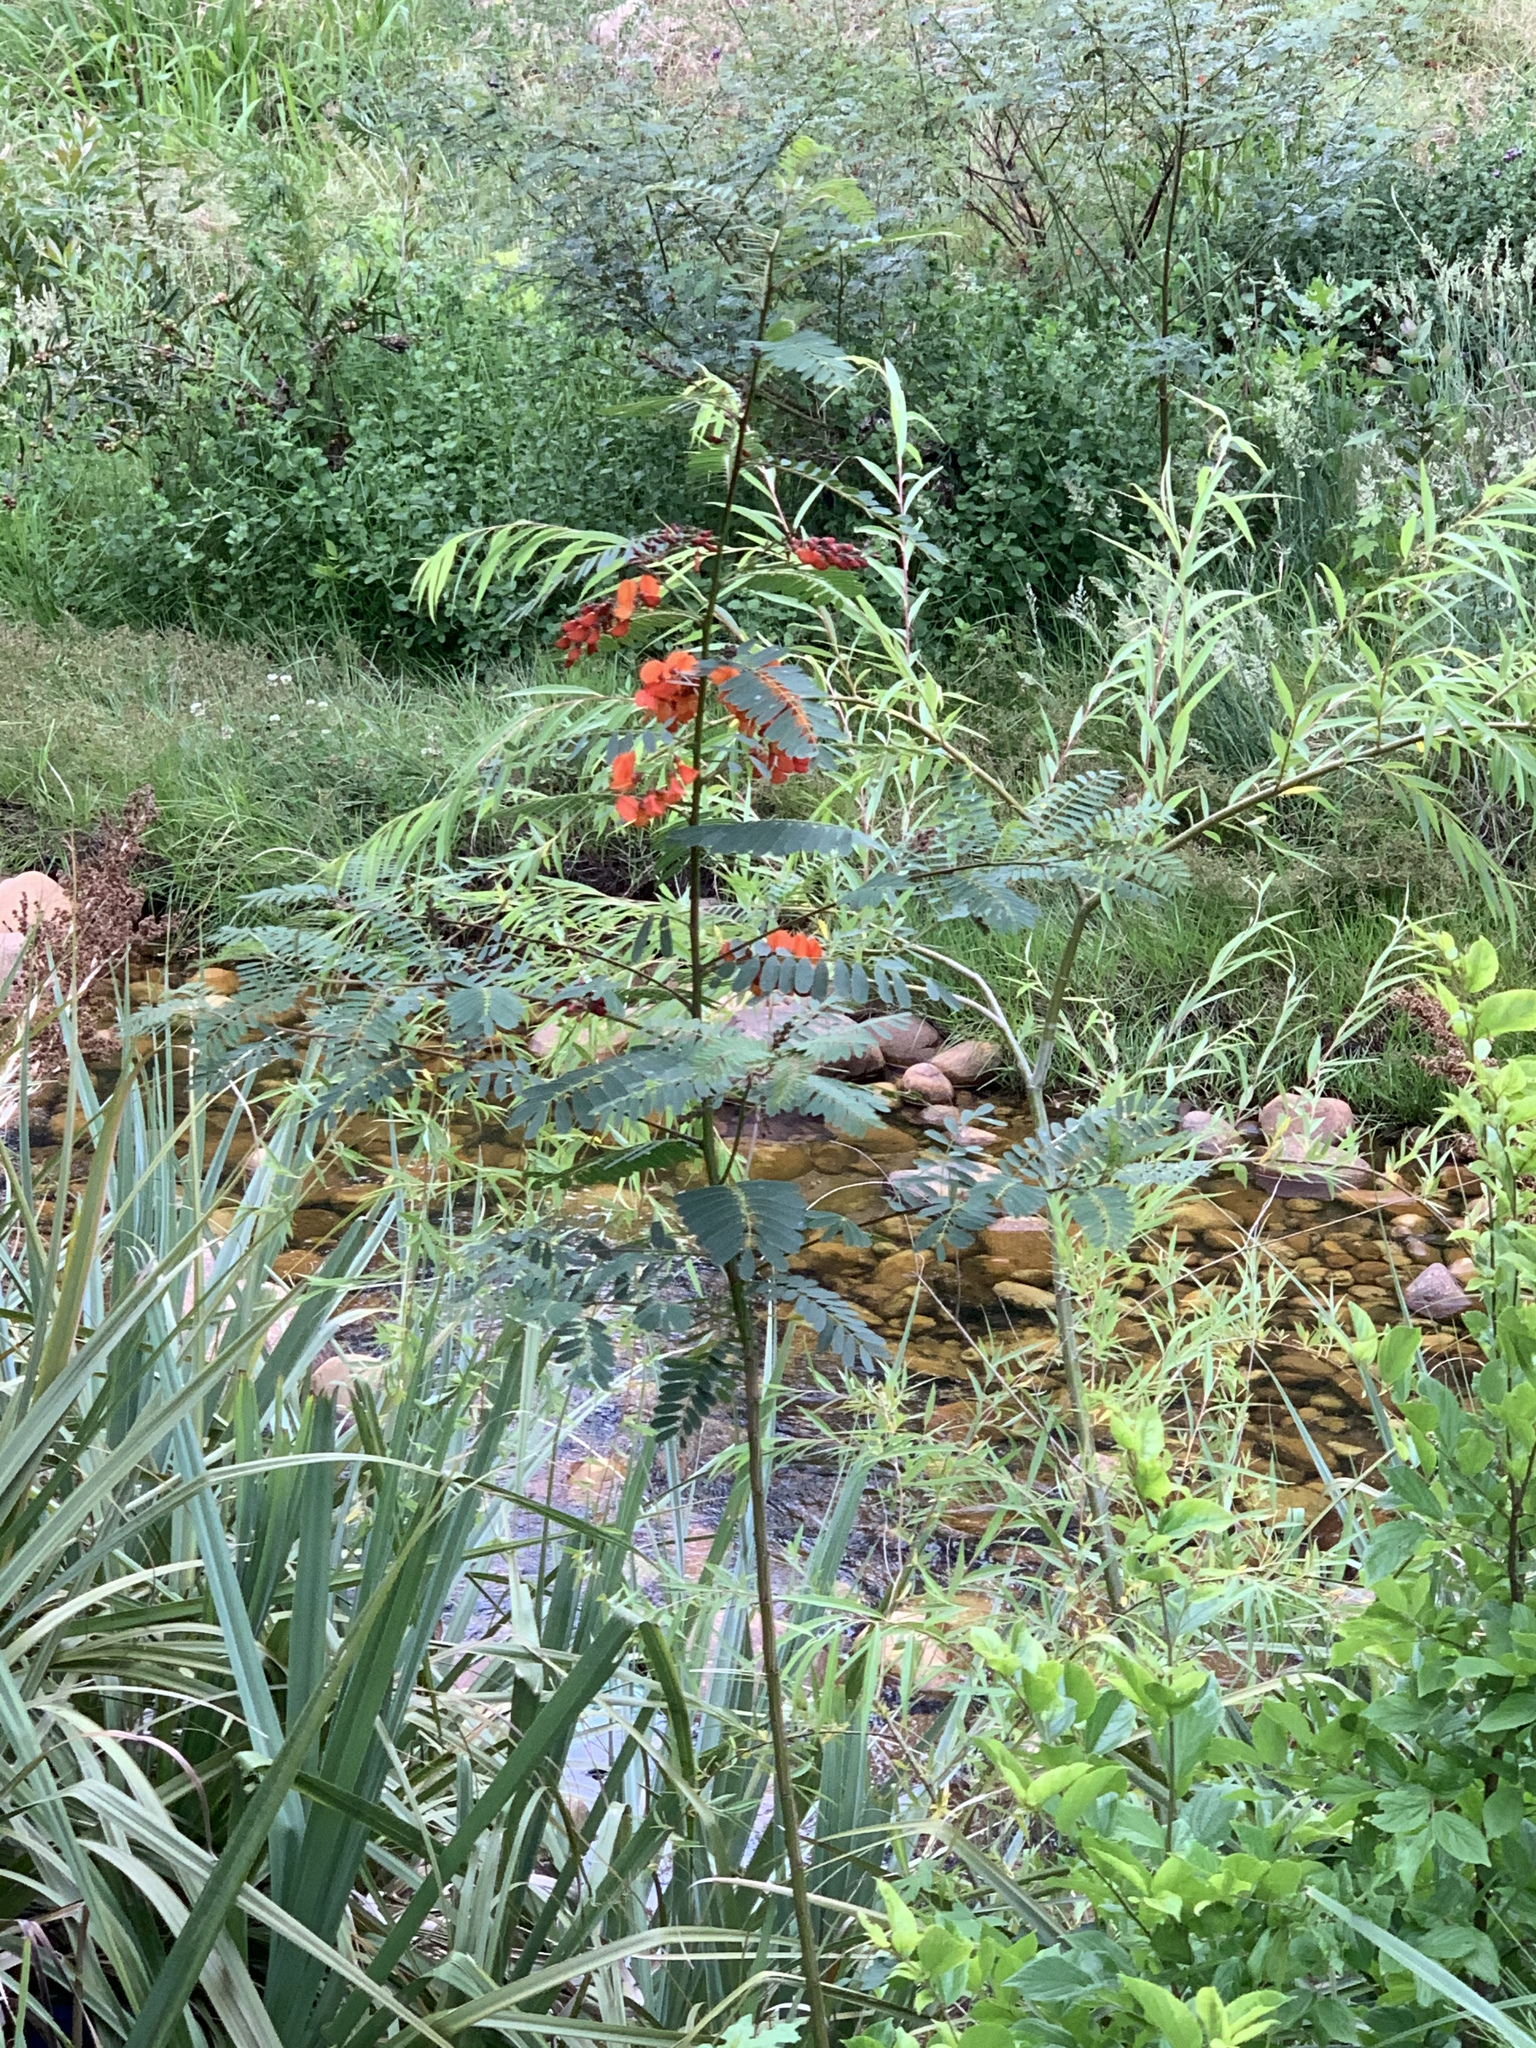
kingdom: Plantae
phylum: Tracheophyta
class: Magnoliopsida
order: Fabales
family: Fabaceae
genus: Sesbania
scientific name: Sesbania punicea
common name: Rattlebox
